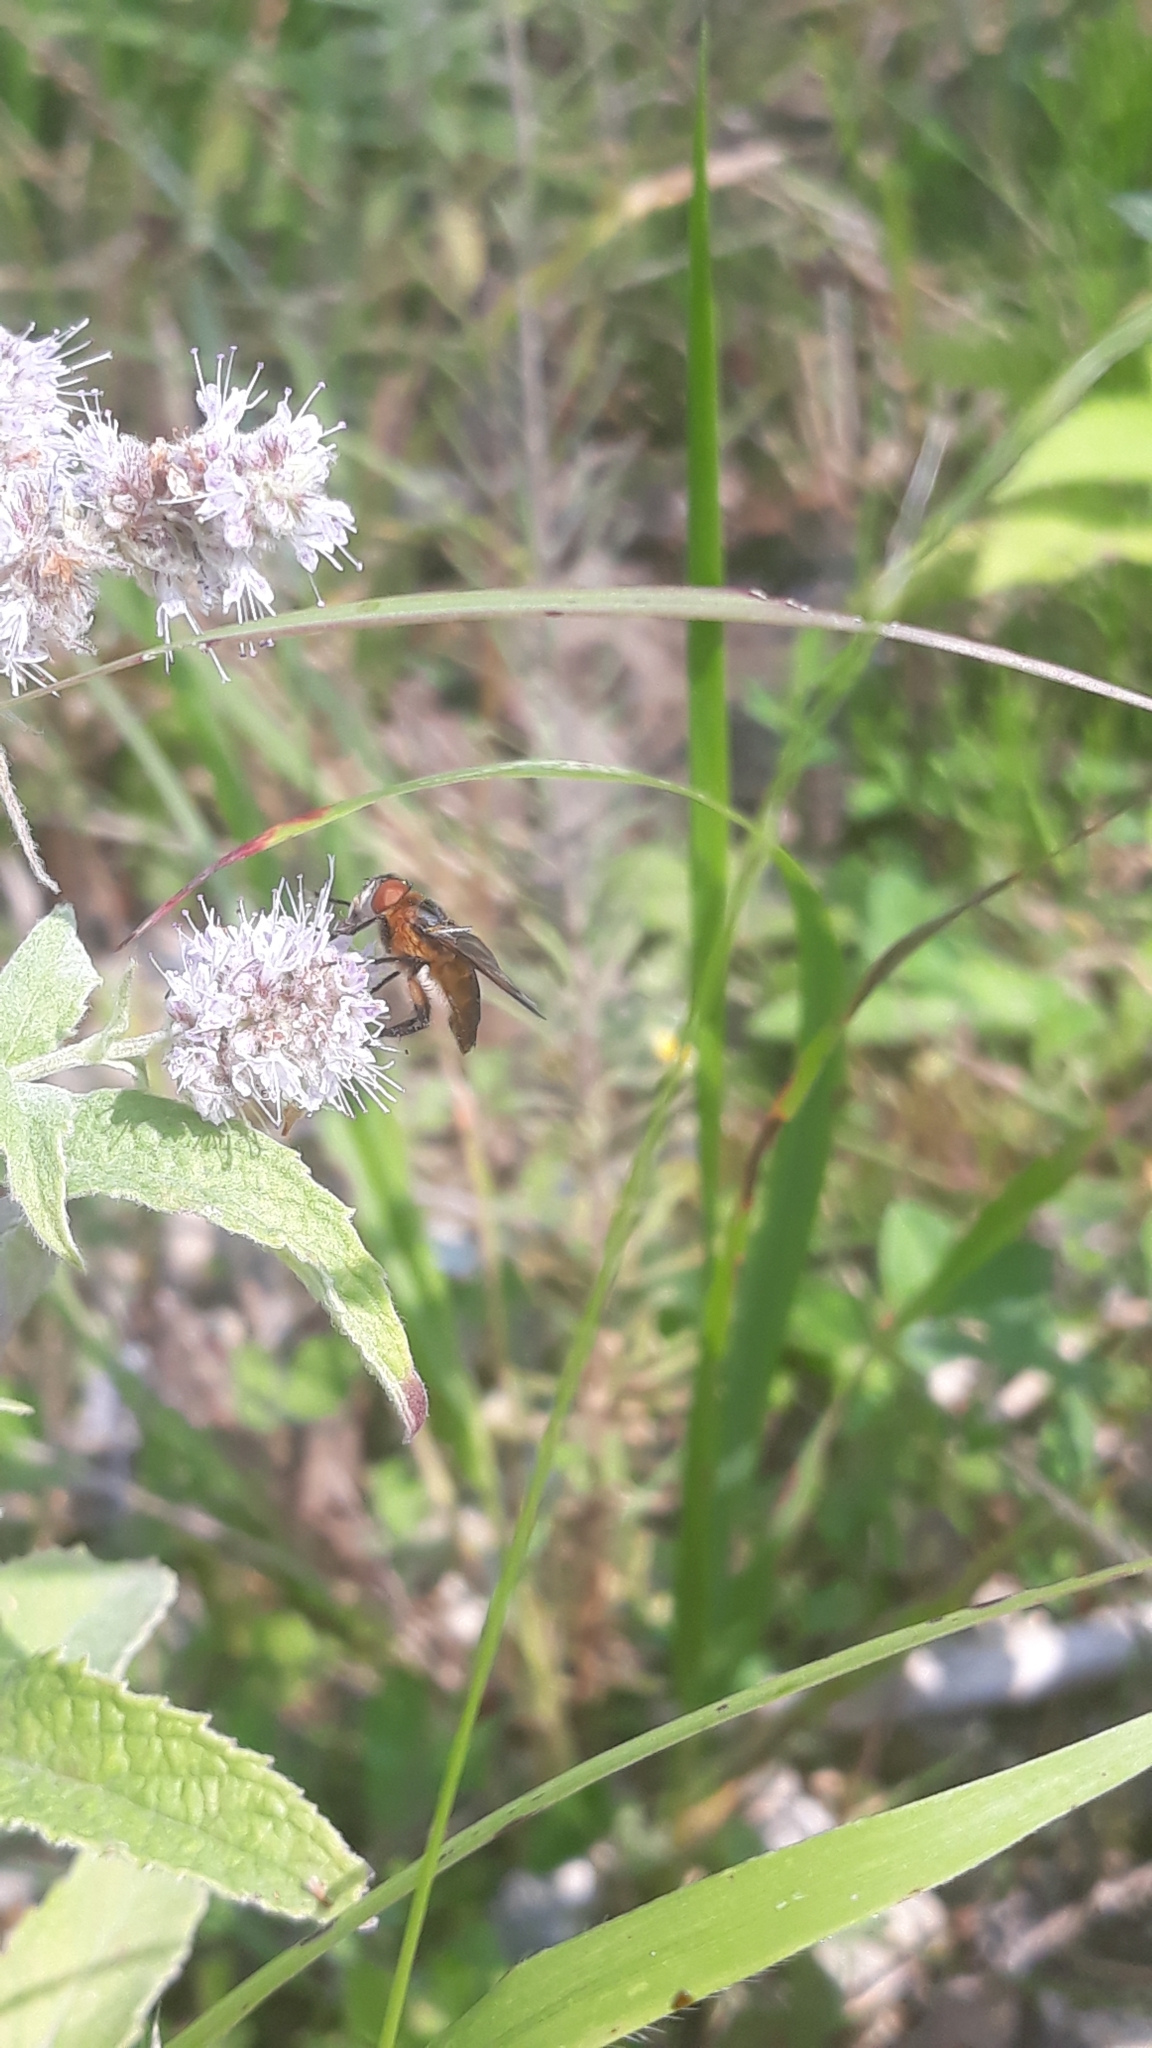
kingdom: Animalia
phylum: Arthropoda
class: Insecta
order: Diptera
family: Tachinidae
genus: Phasia
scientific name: Phasia hemiptera
